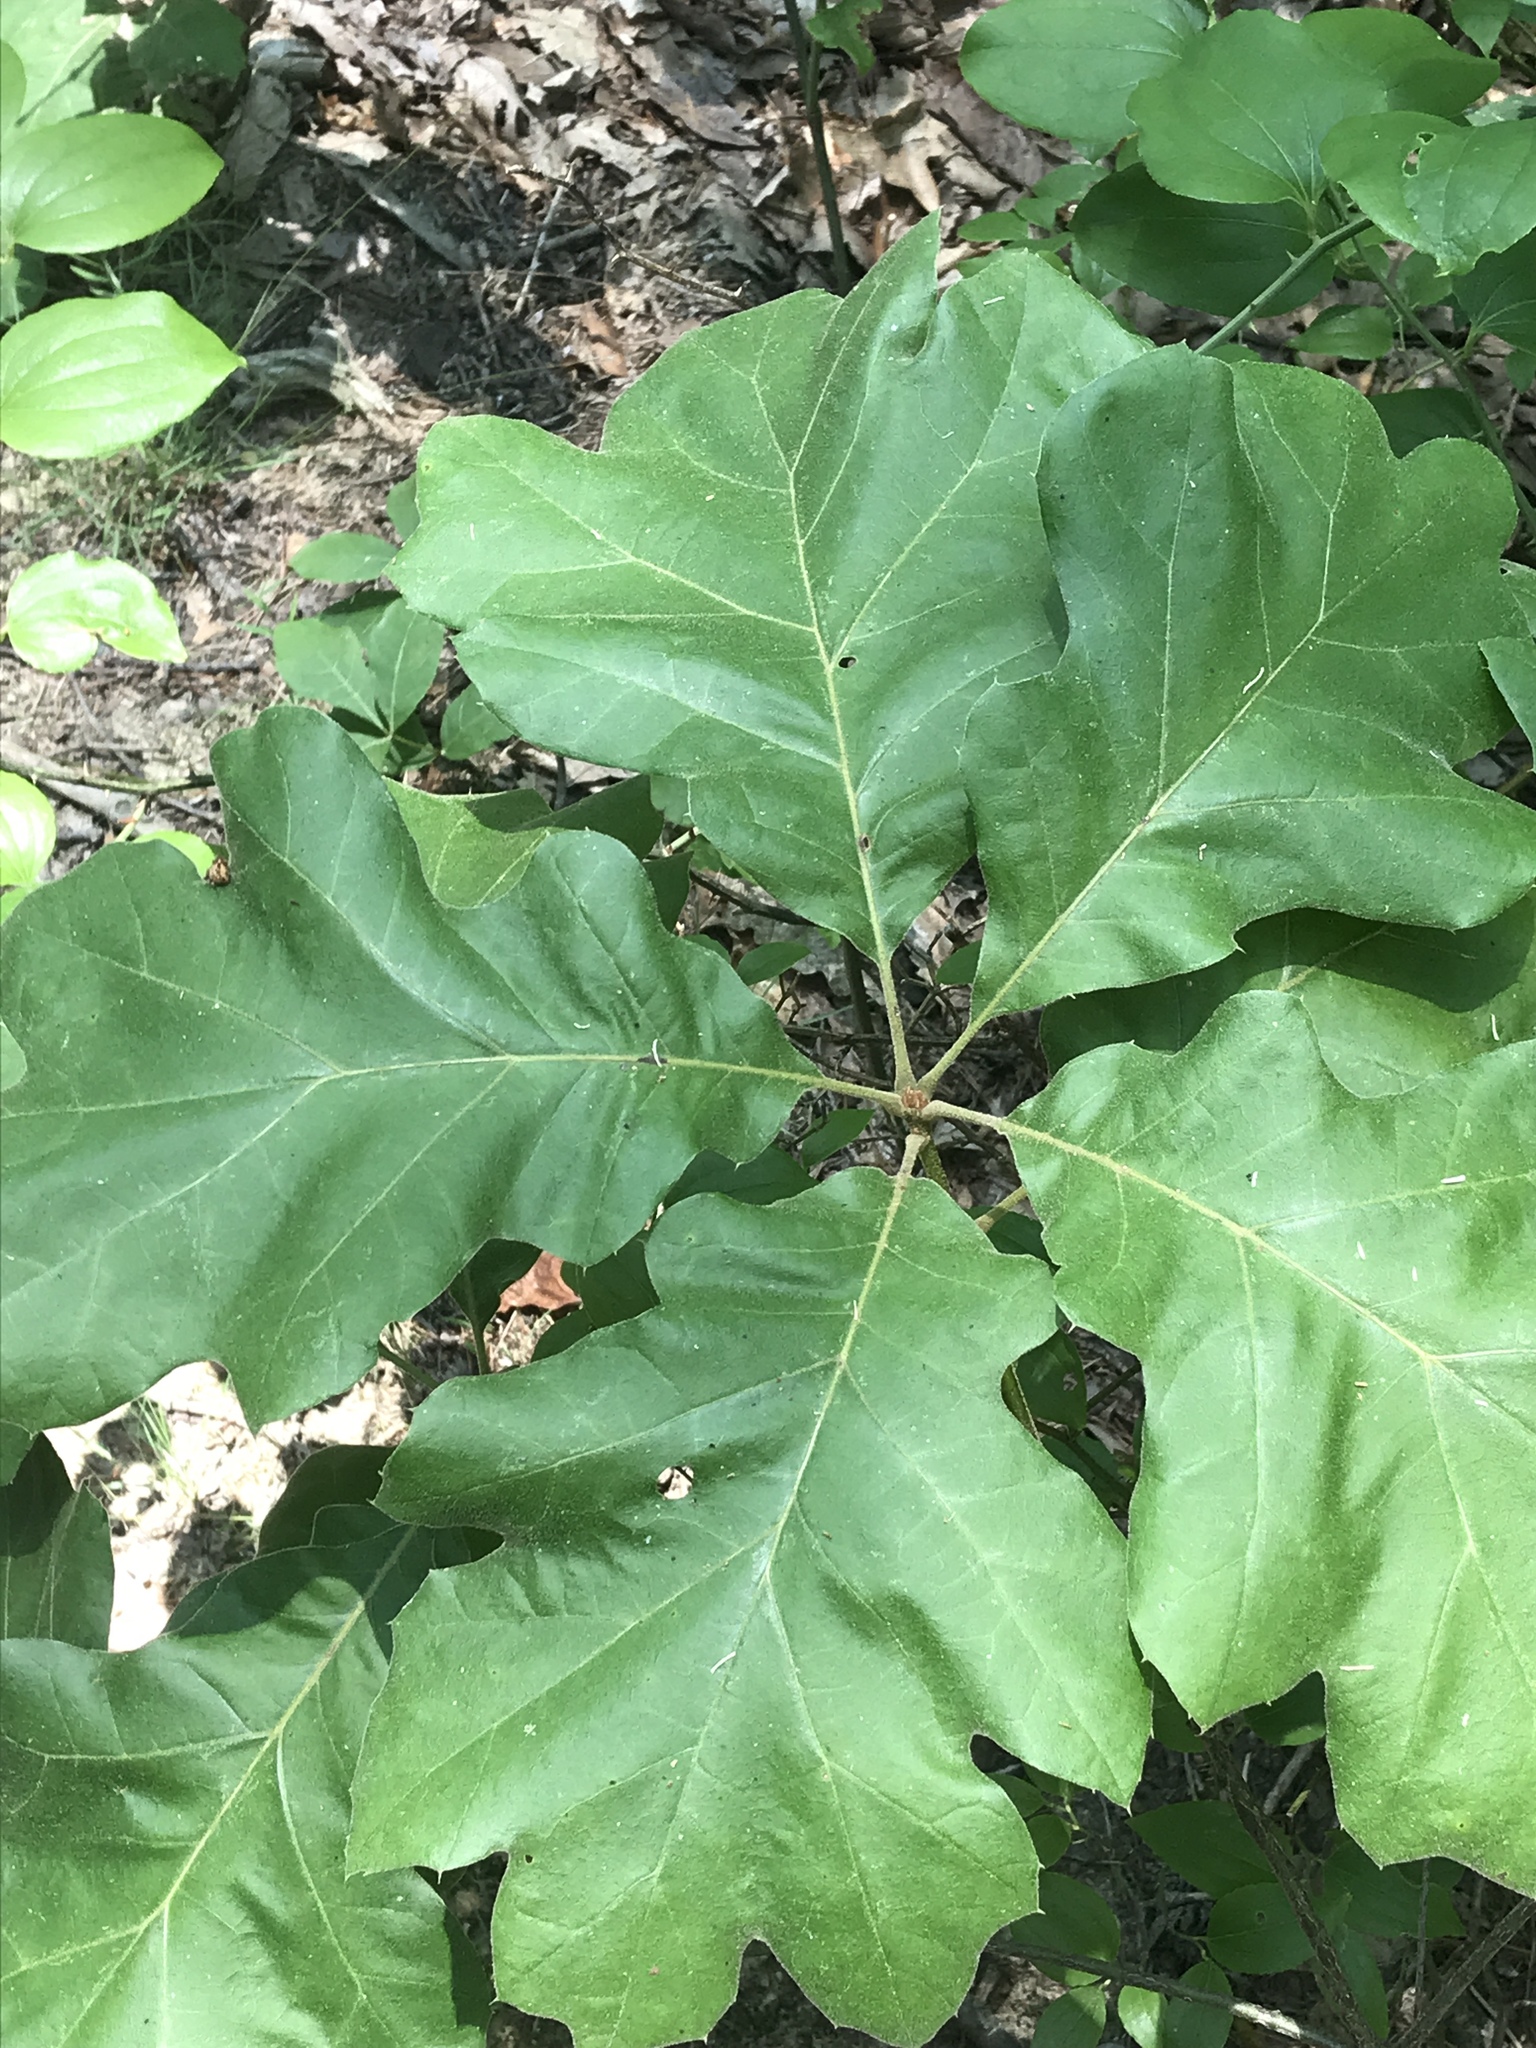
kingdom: Plantae
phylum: Tracheophyta
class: Magnoliopsida
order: Fagales
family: Fagaceae
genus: Quercus
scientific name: Quercus velutina
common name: Black oak
